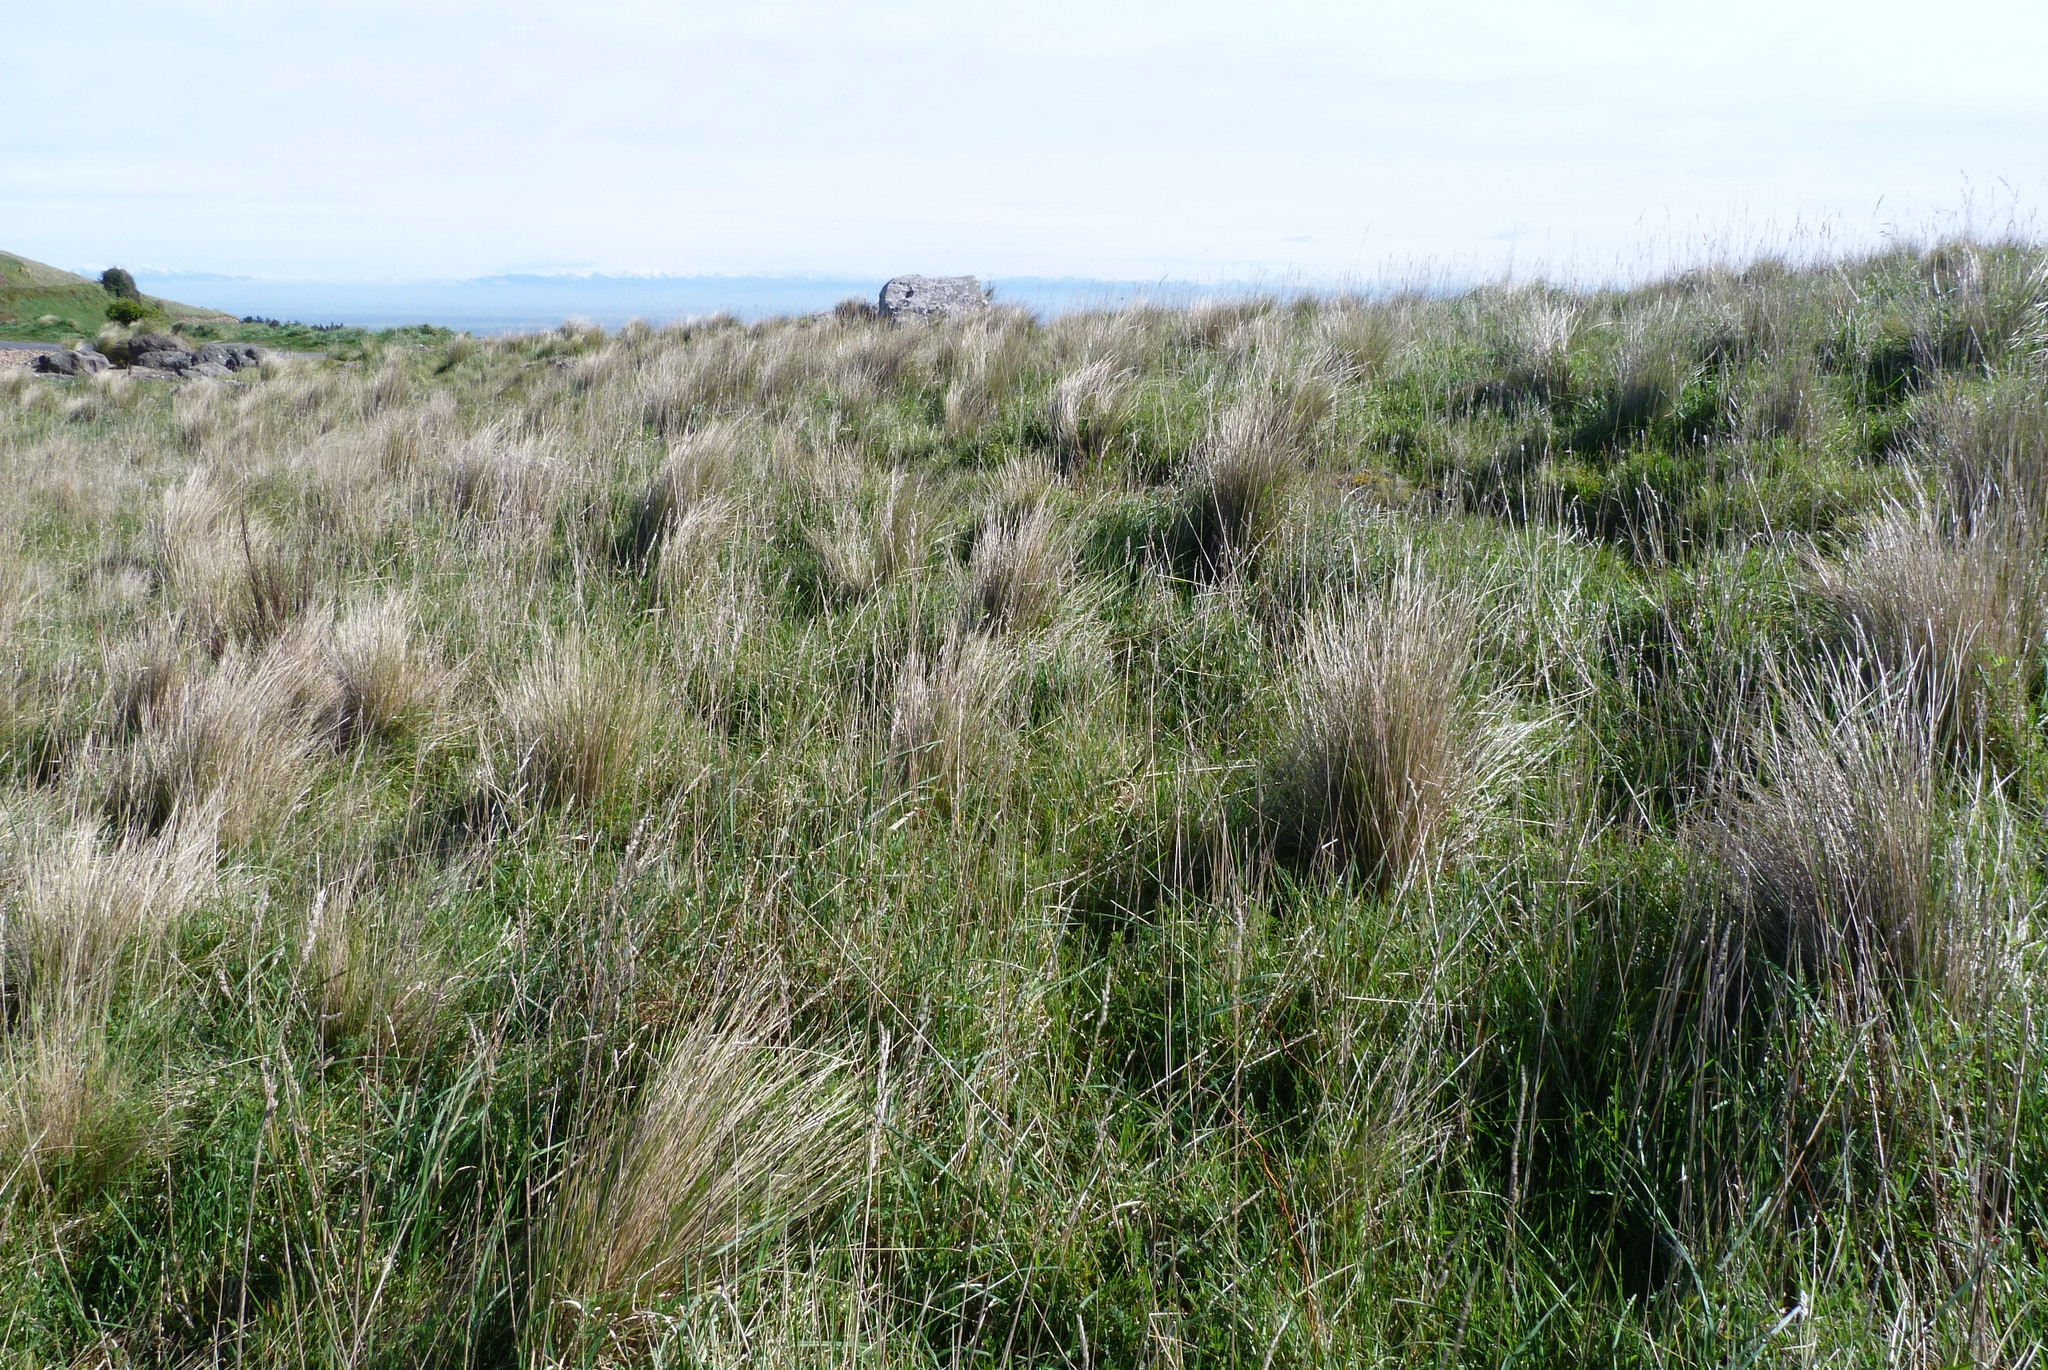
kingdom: Plantae
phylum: Tracheophyta
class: Liliopsida
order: Poales
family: Poaceae
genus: Poa
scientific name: Poa cita
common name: Silver tussock
